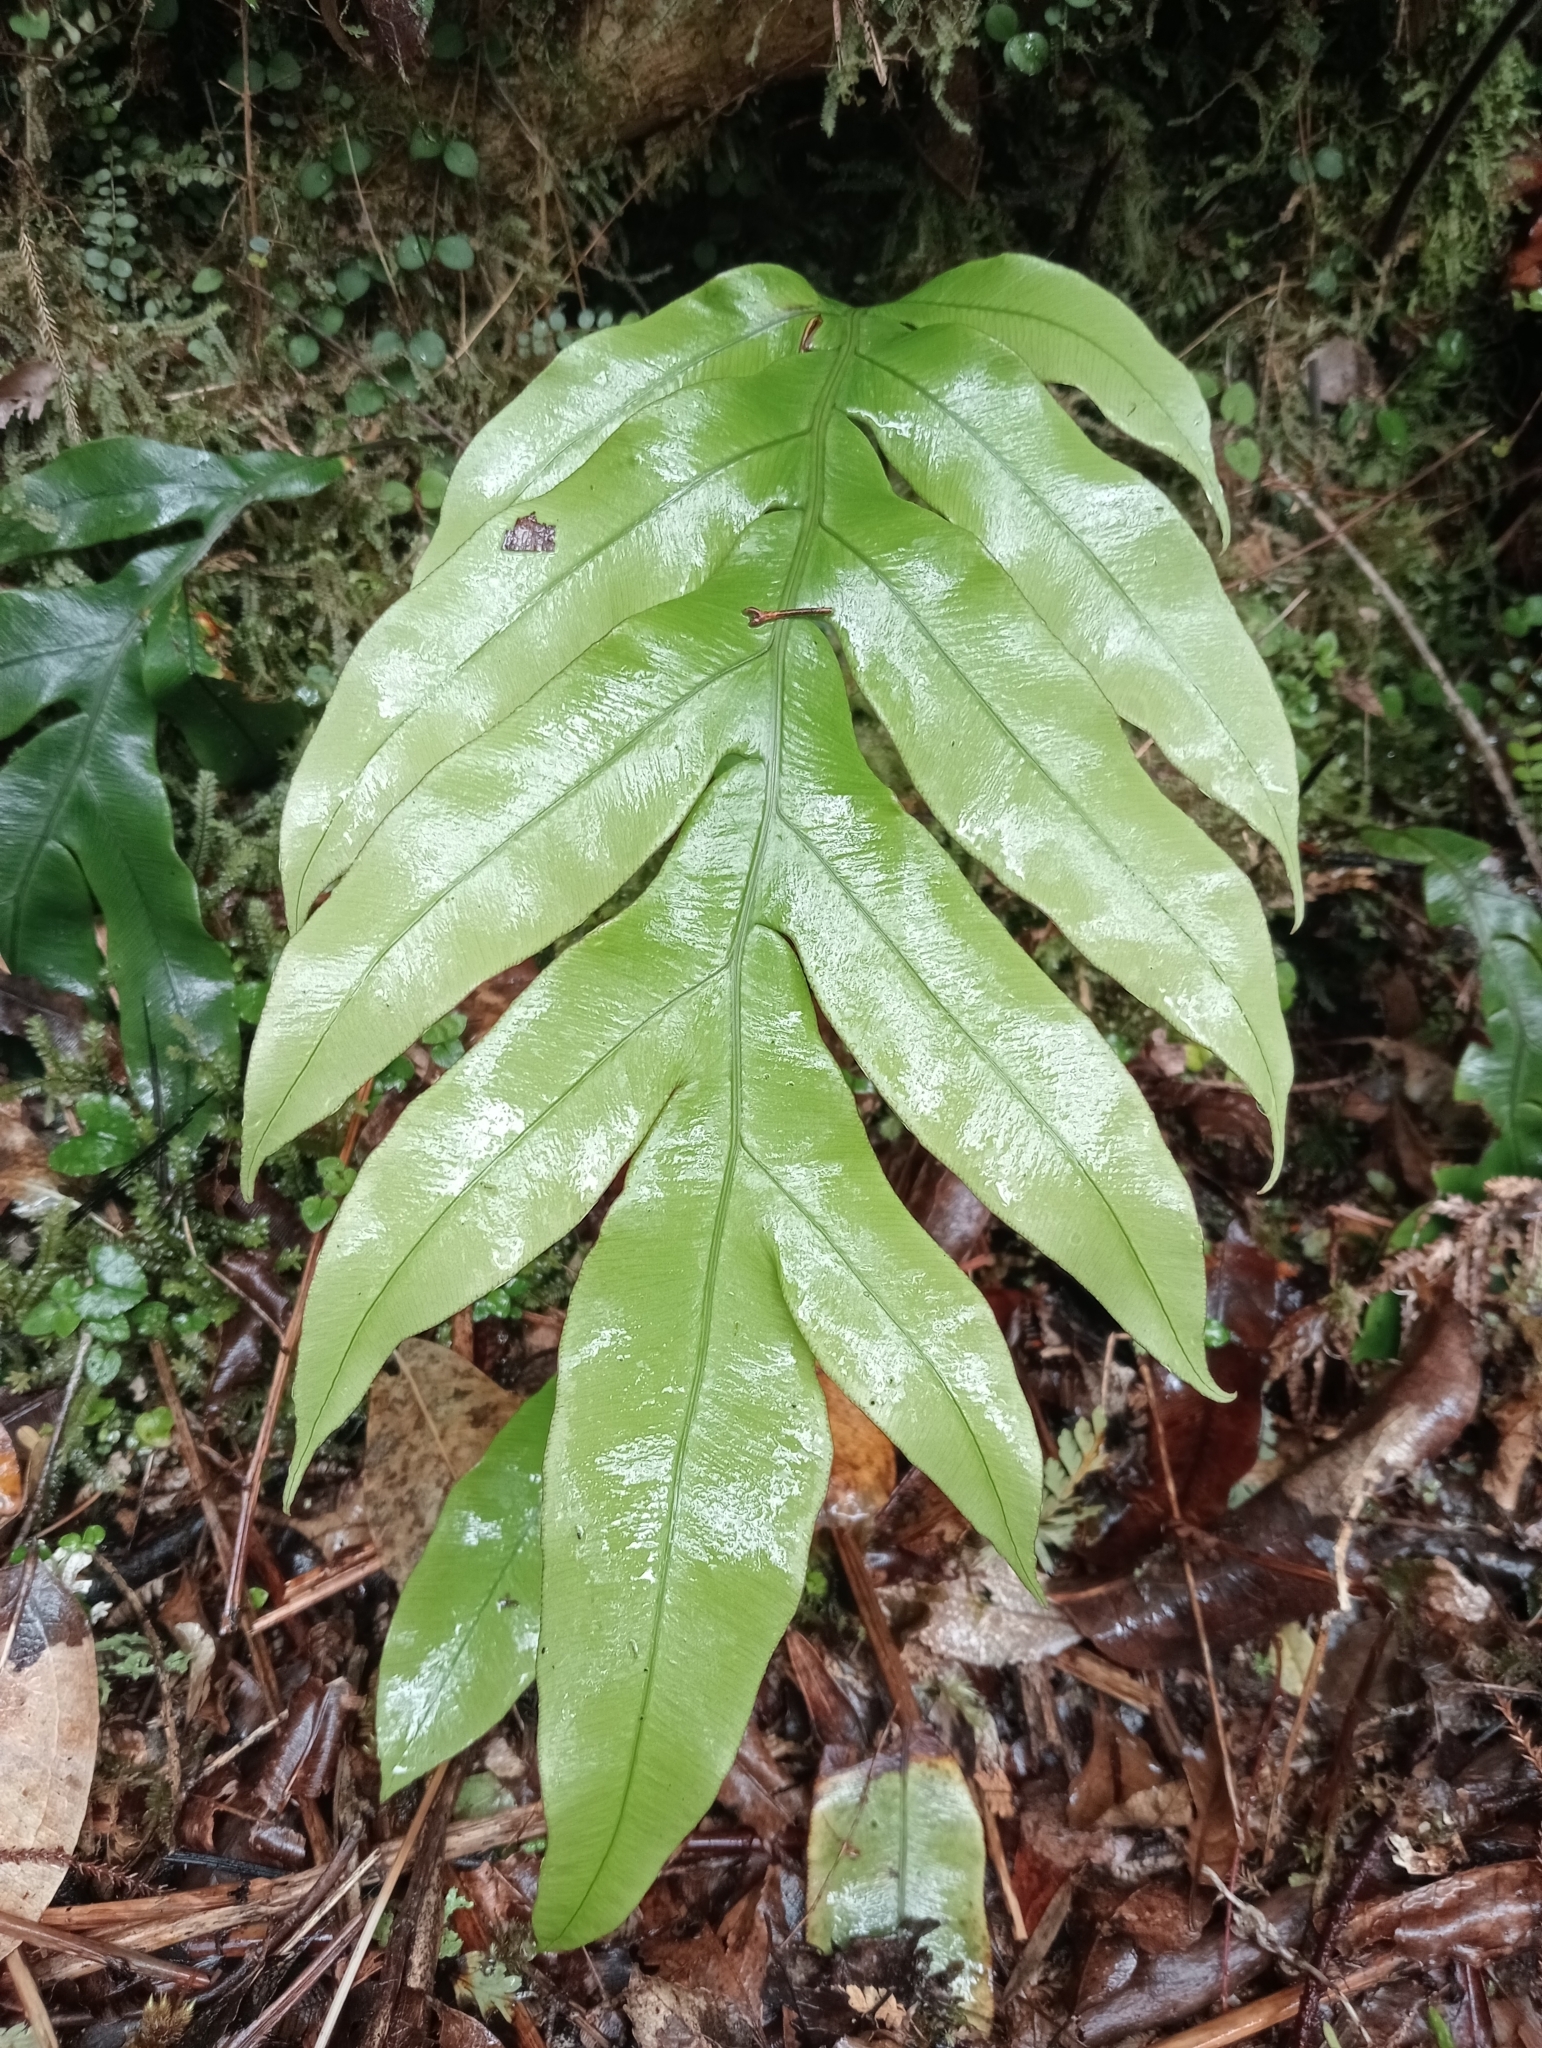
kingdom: Plantae
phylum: Tracheophyta
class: Polypodiopsida
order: Polypodiales
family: Blechnaceae
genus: Austroblechnum
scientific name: Austroblechnum colensoi
